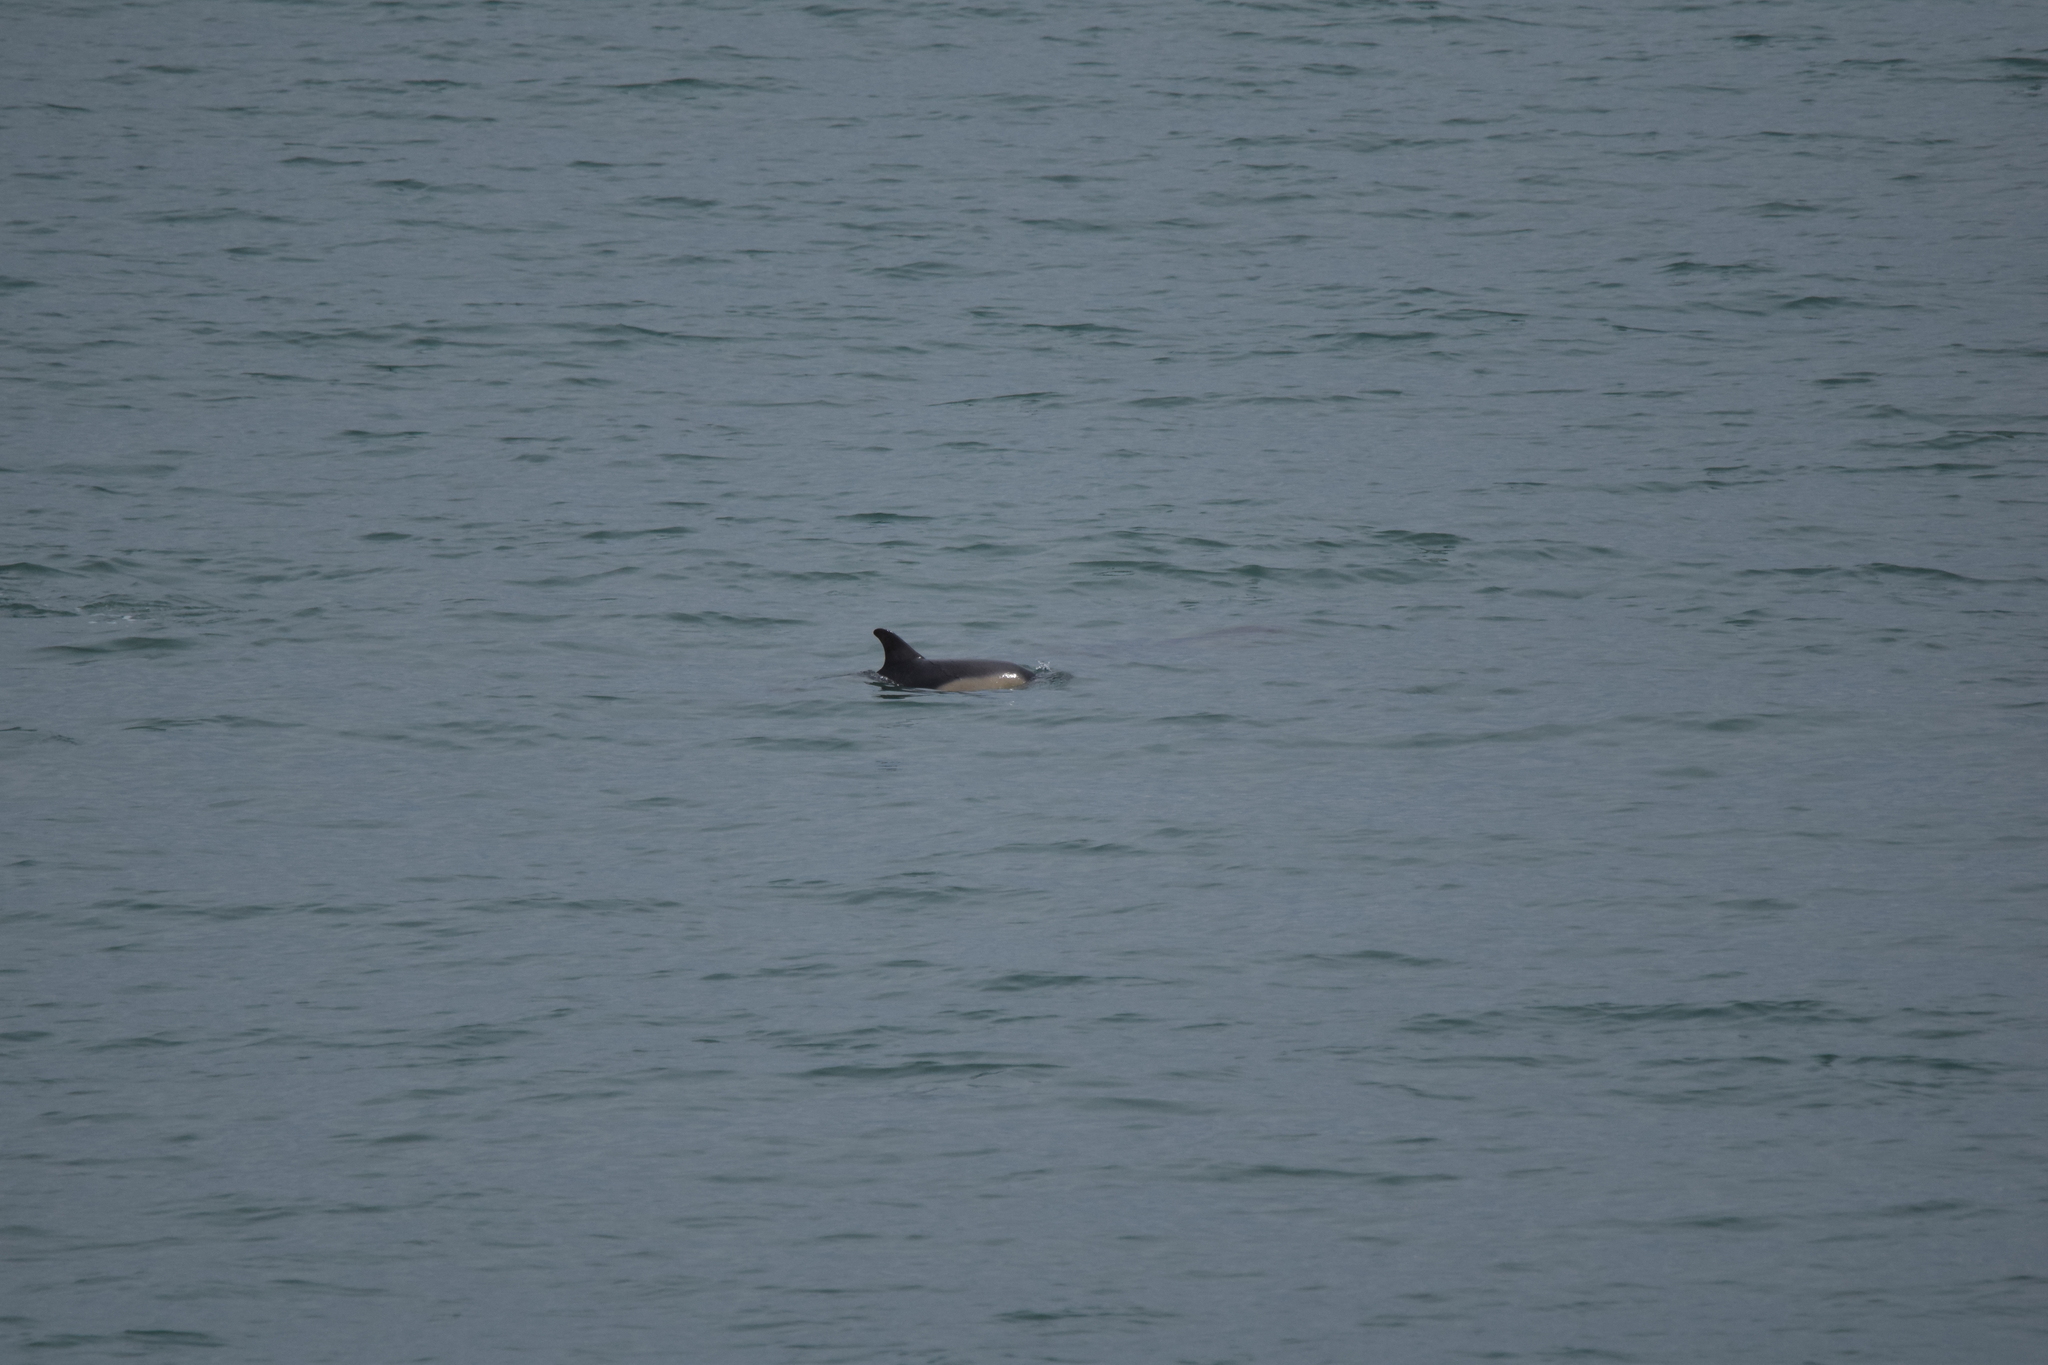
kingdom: Animalia
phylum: Chordata
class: Mammalia
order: Cetacea
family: Delphinidae
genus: Delphinus
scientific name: Delphinus delphis
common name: Common dolphin
